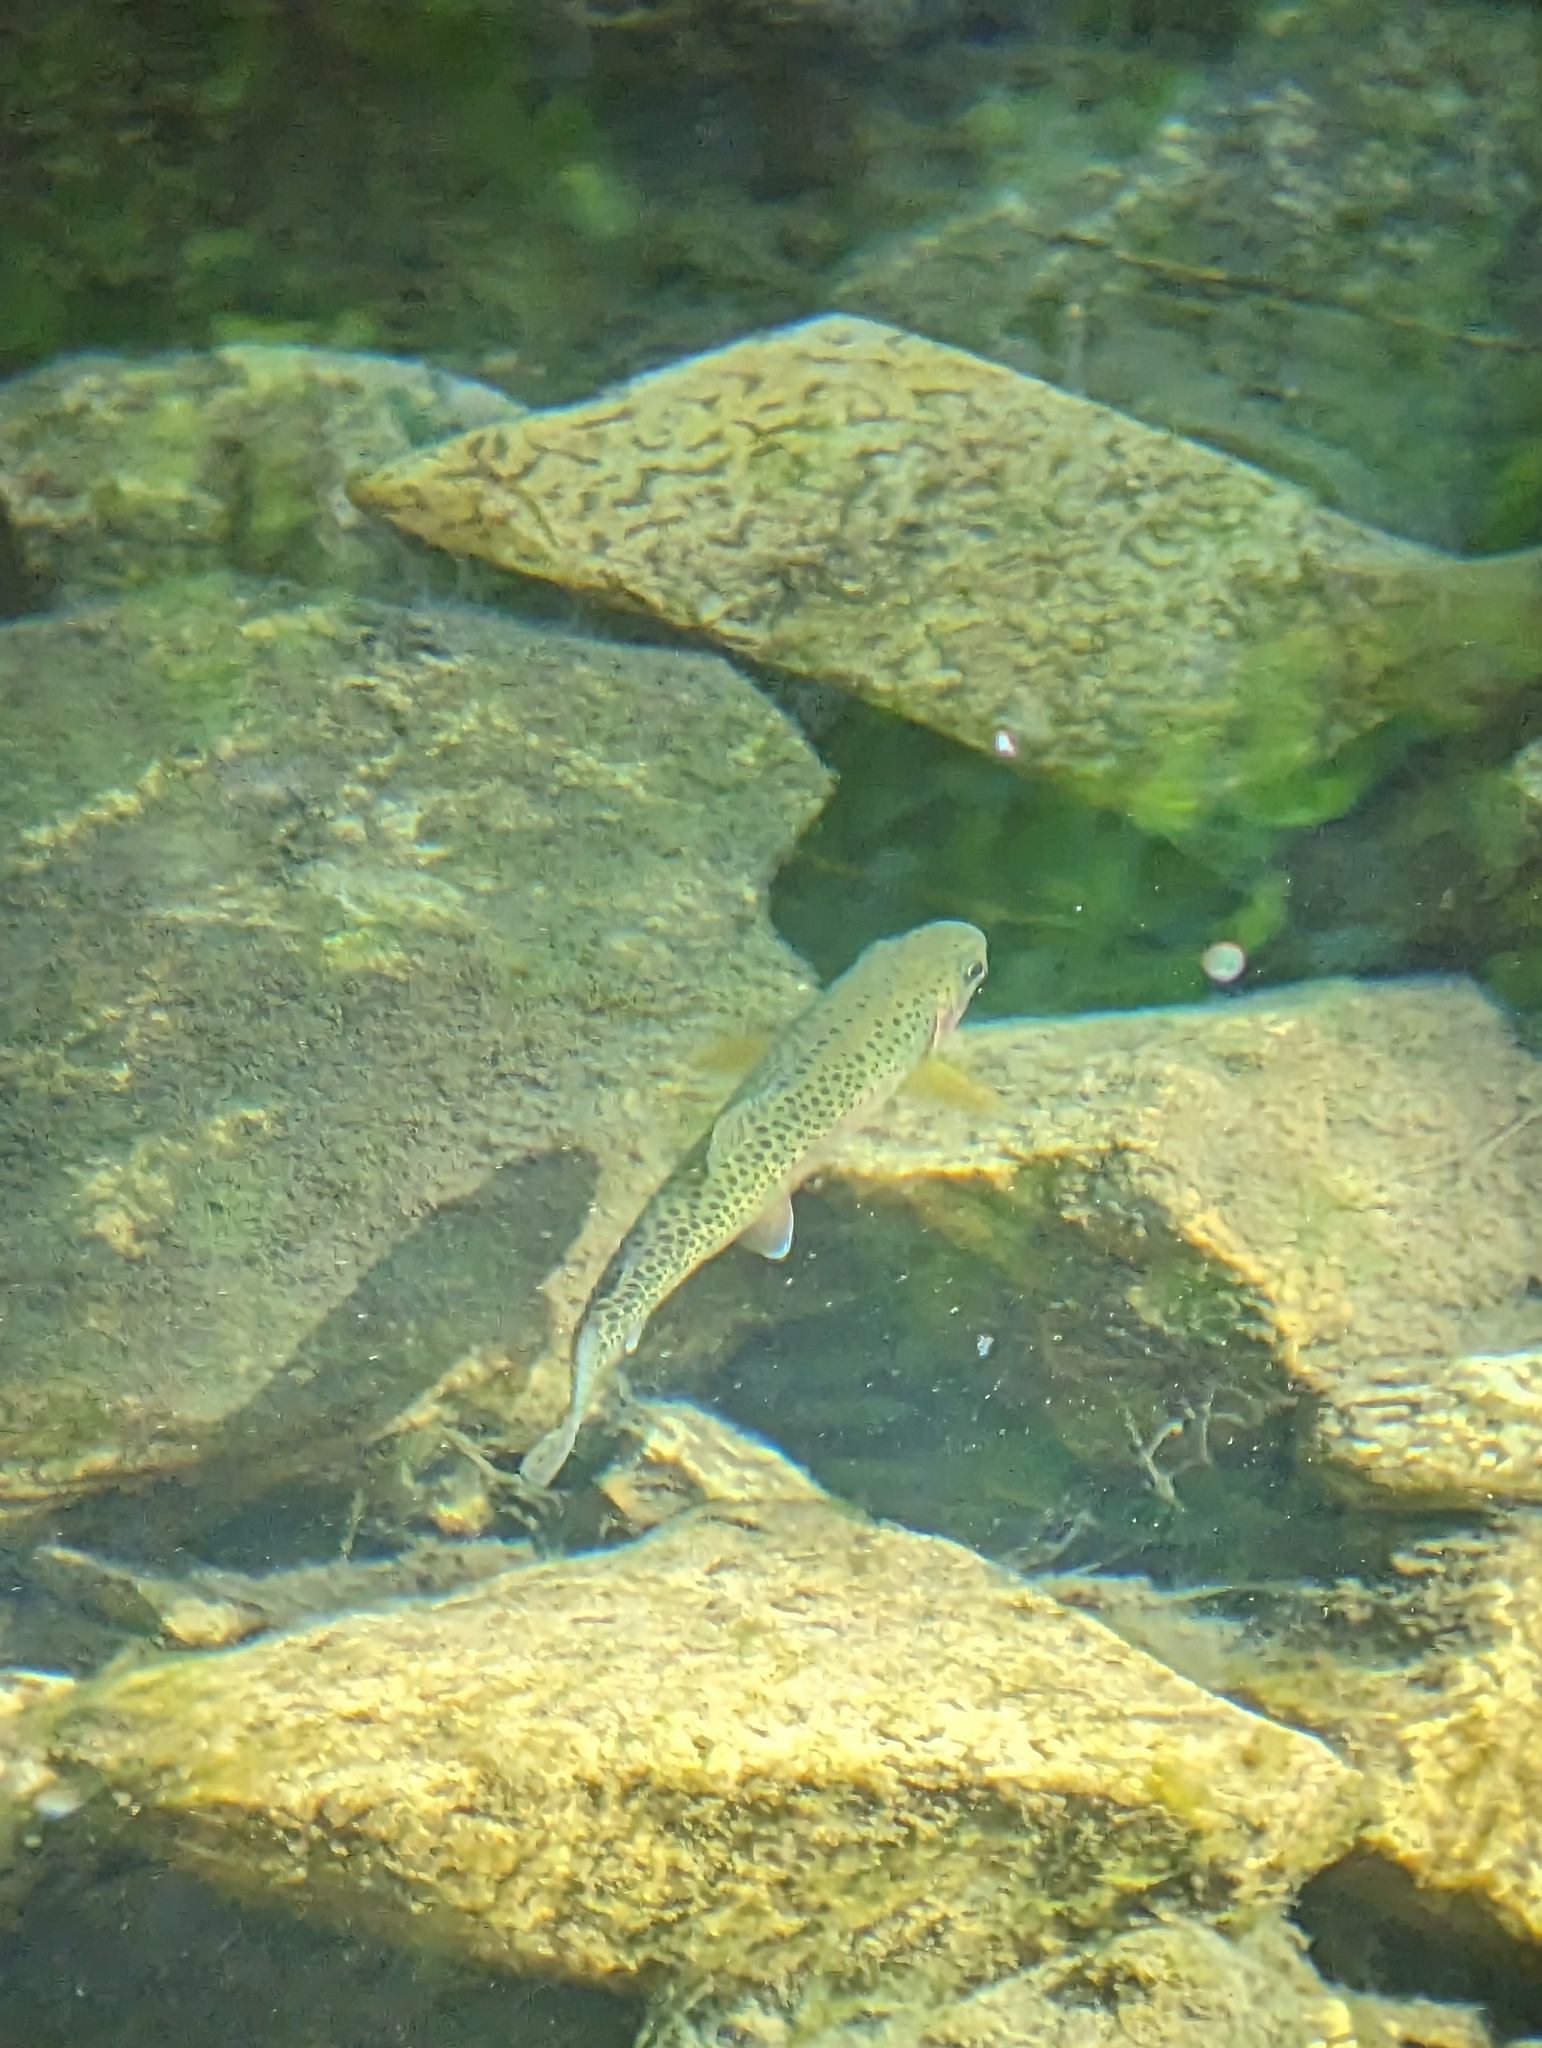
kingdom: Animalia
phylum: Chordata
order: Salmoniformes
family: Salmonidae
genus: Oncorhynchus
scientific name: Oncorhynchus mykiss
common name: Rainbow trout
